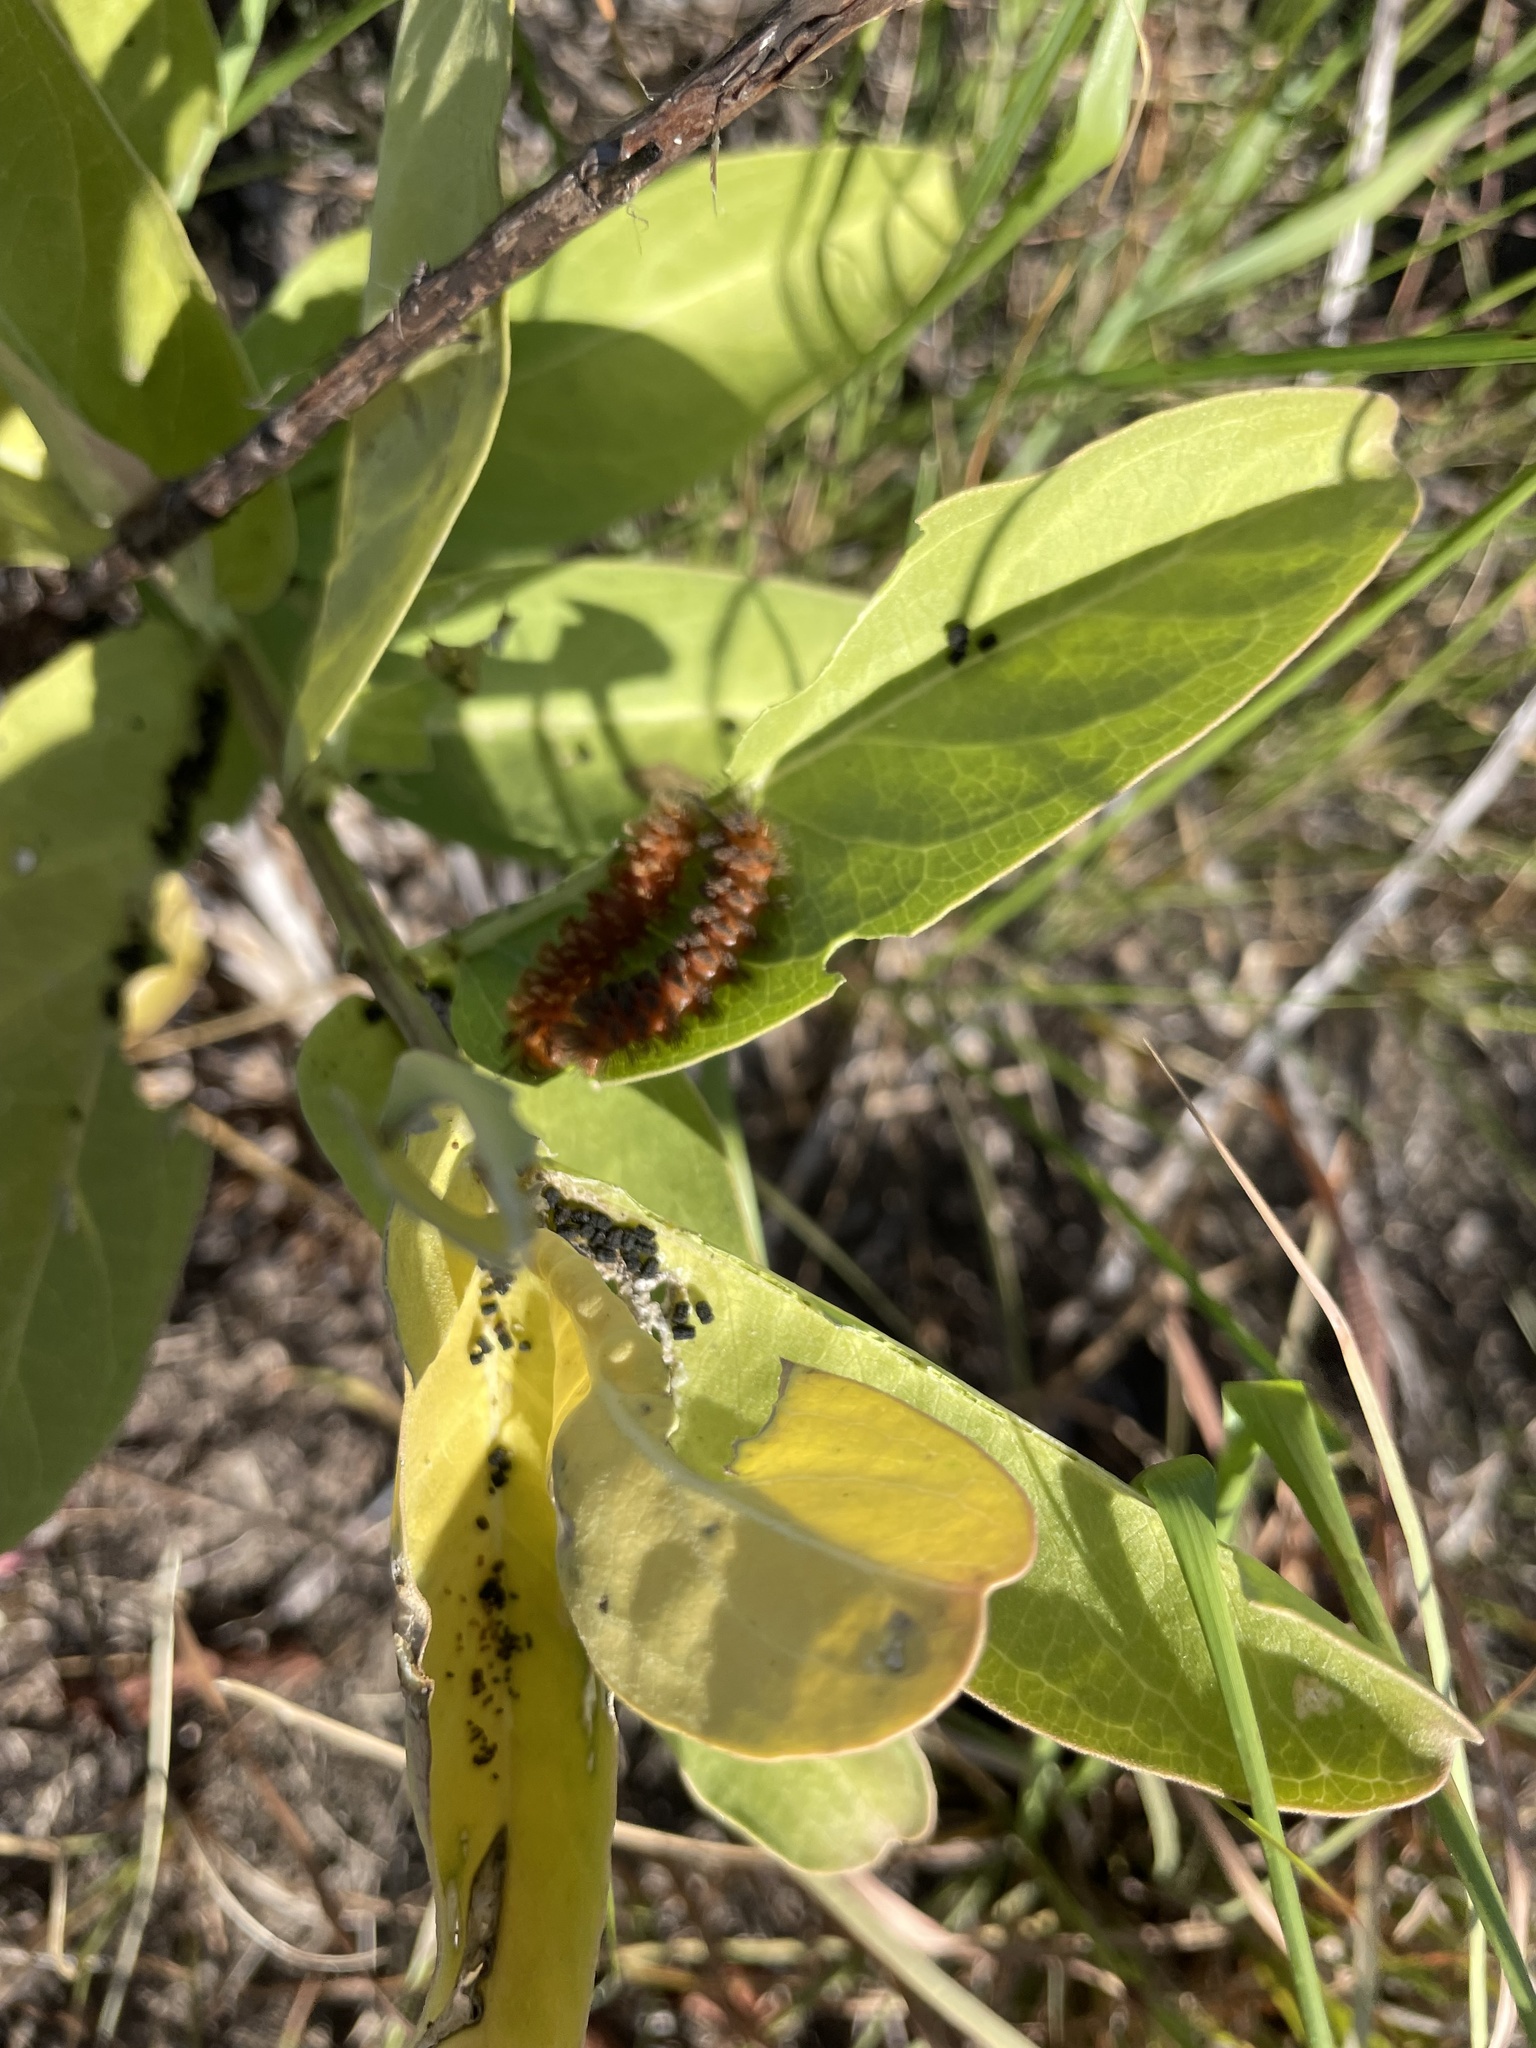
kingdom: Animalia
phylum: Arthropoda
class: Insecta
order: Lepidoptera
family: Erebidae
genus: Cycnia
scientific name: Cycnia collaris
